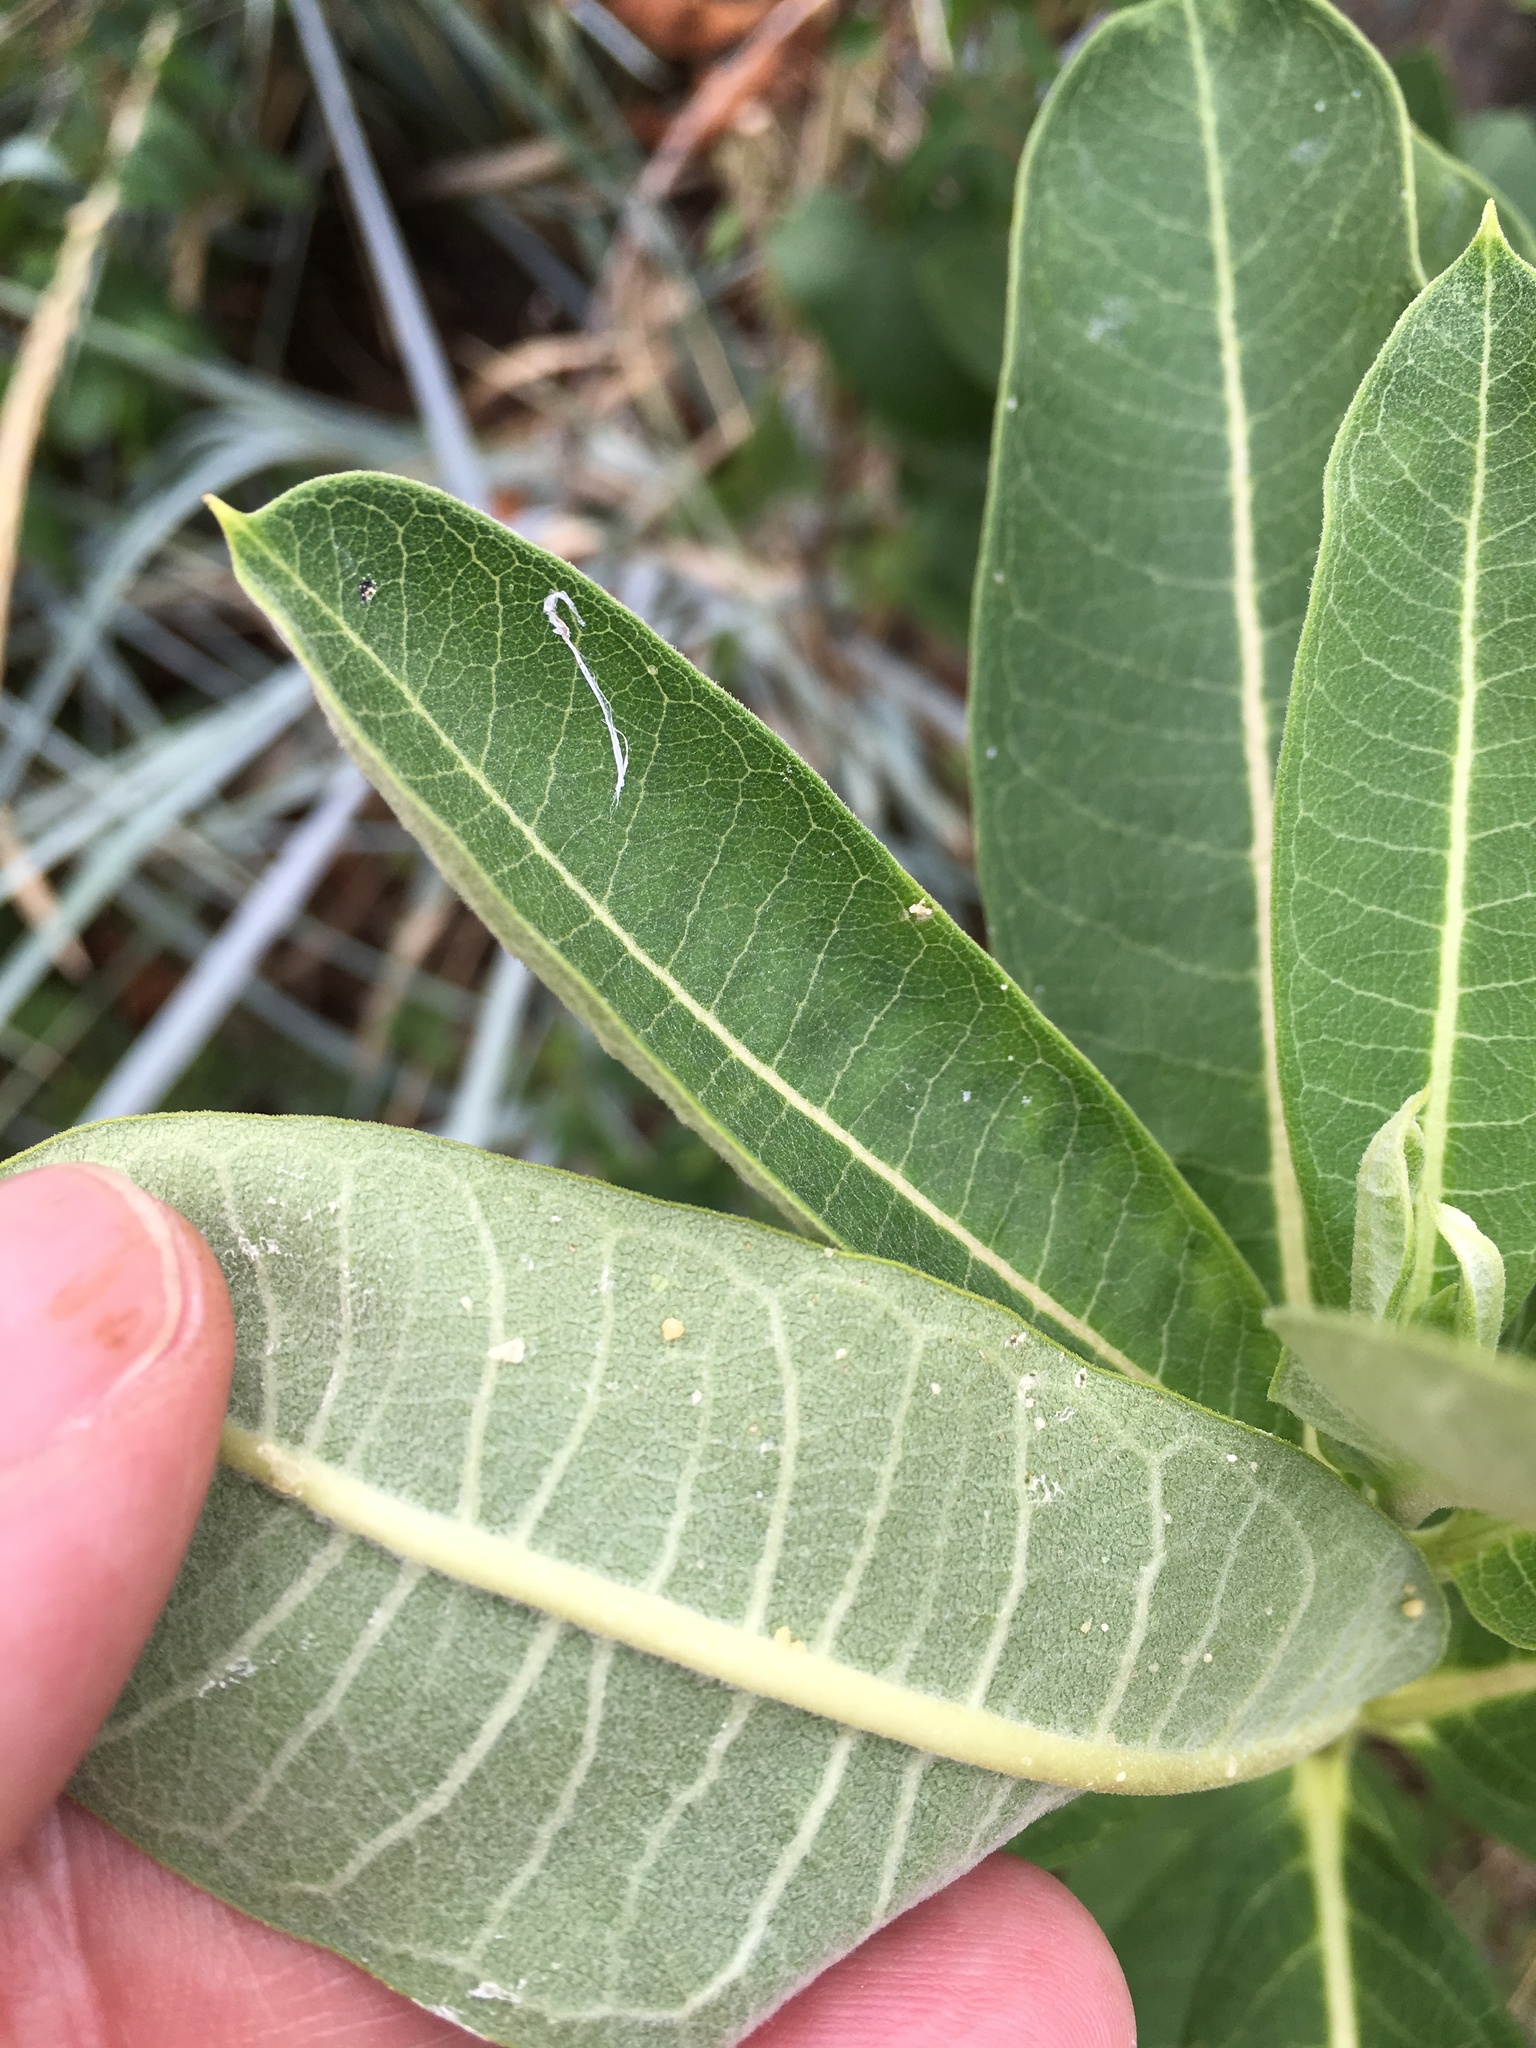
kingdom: Animalia
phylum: Arthropoda
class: Insecta
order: Lepidoptera
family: Nymphalidae
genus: Danaus
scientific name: Danaus plexippus
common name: Monarch
